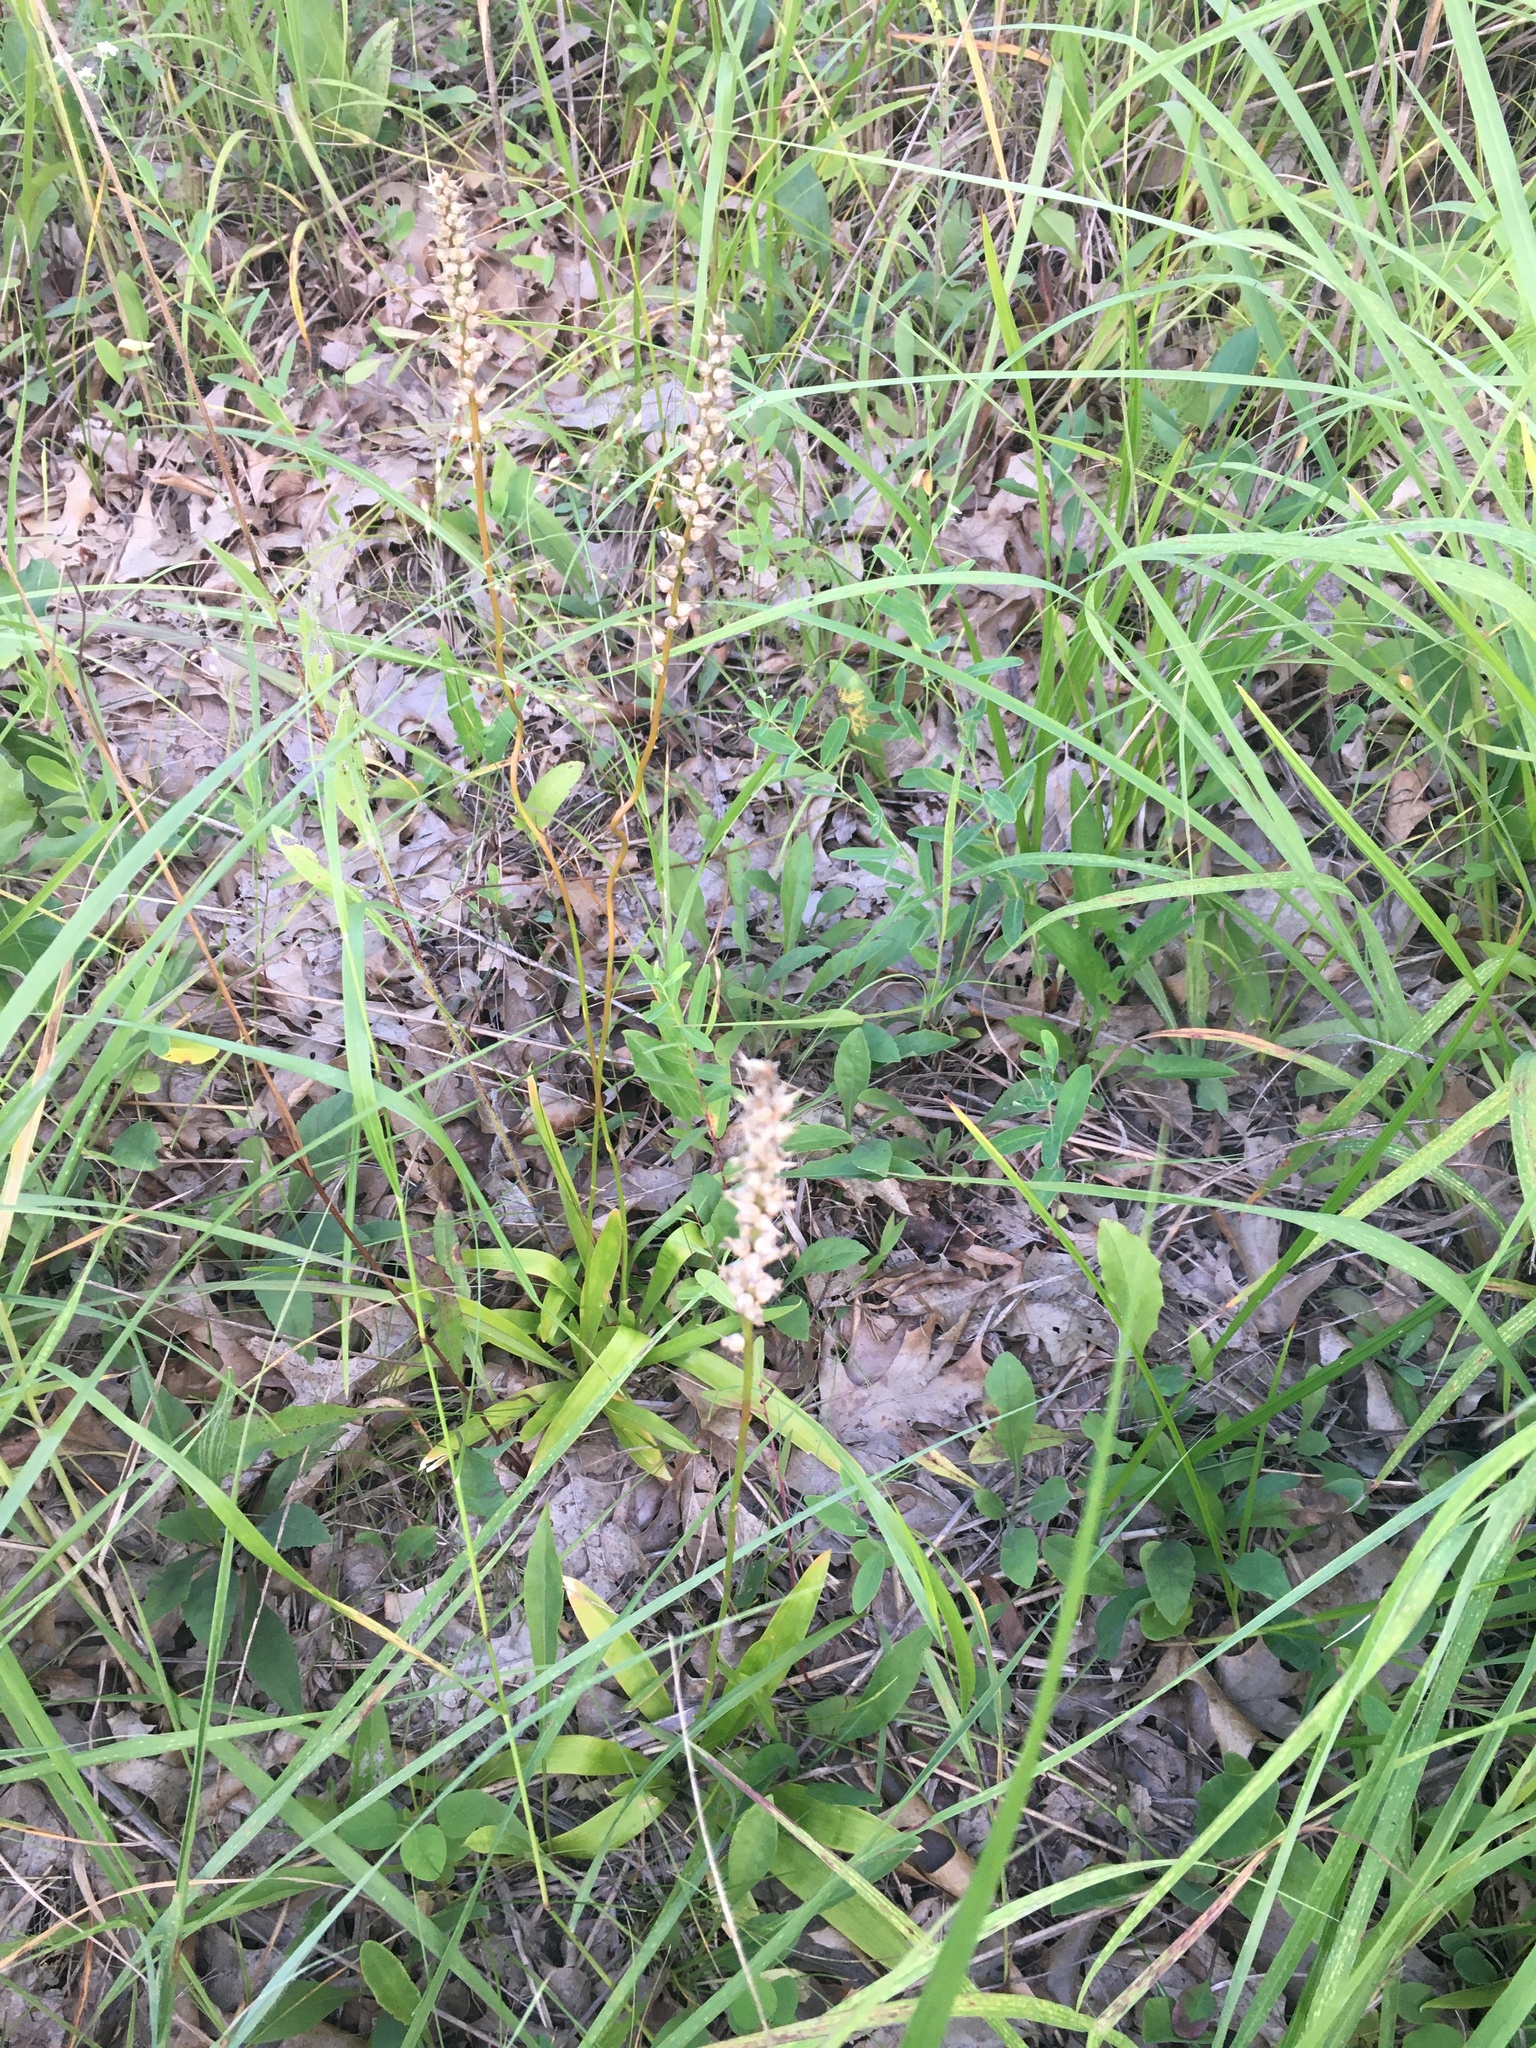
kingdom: Plantae
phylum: Tracheophyta
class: Liliopsida
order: Dioscoreales
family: Nartheciaceae
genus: Aletris
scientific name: Aletris farinosa
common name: Colicroot
